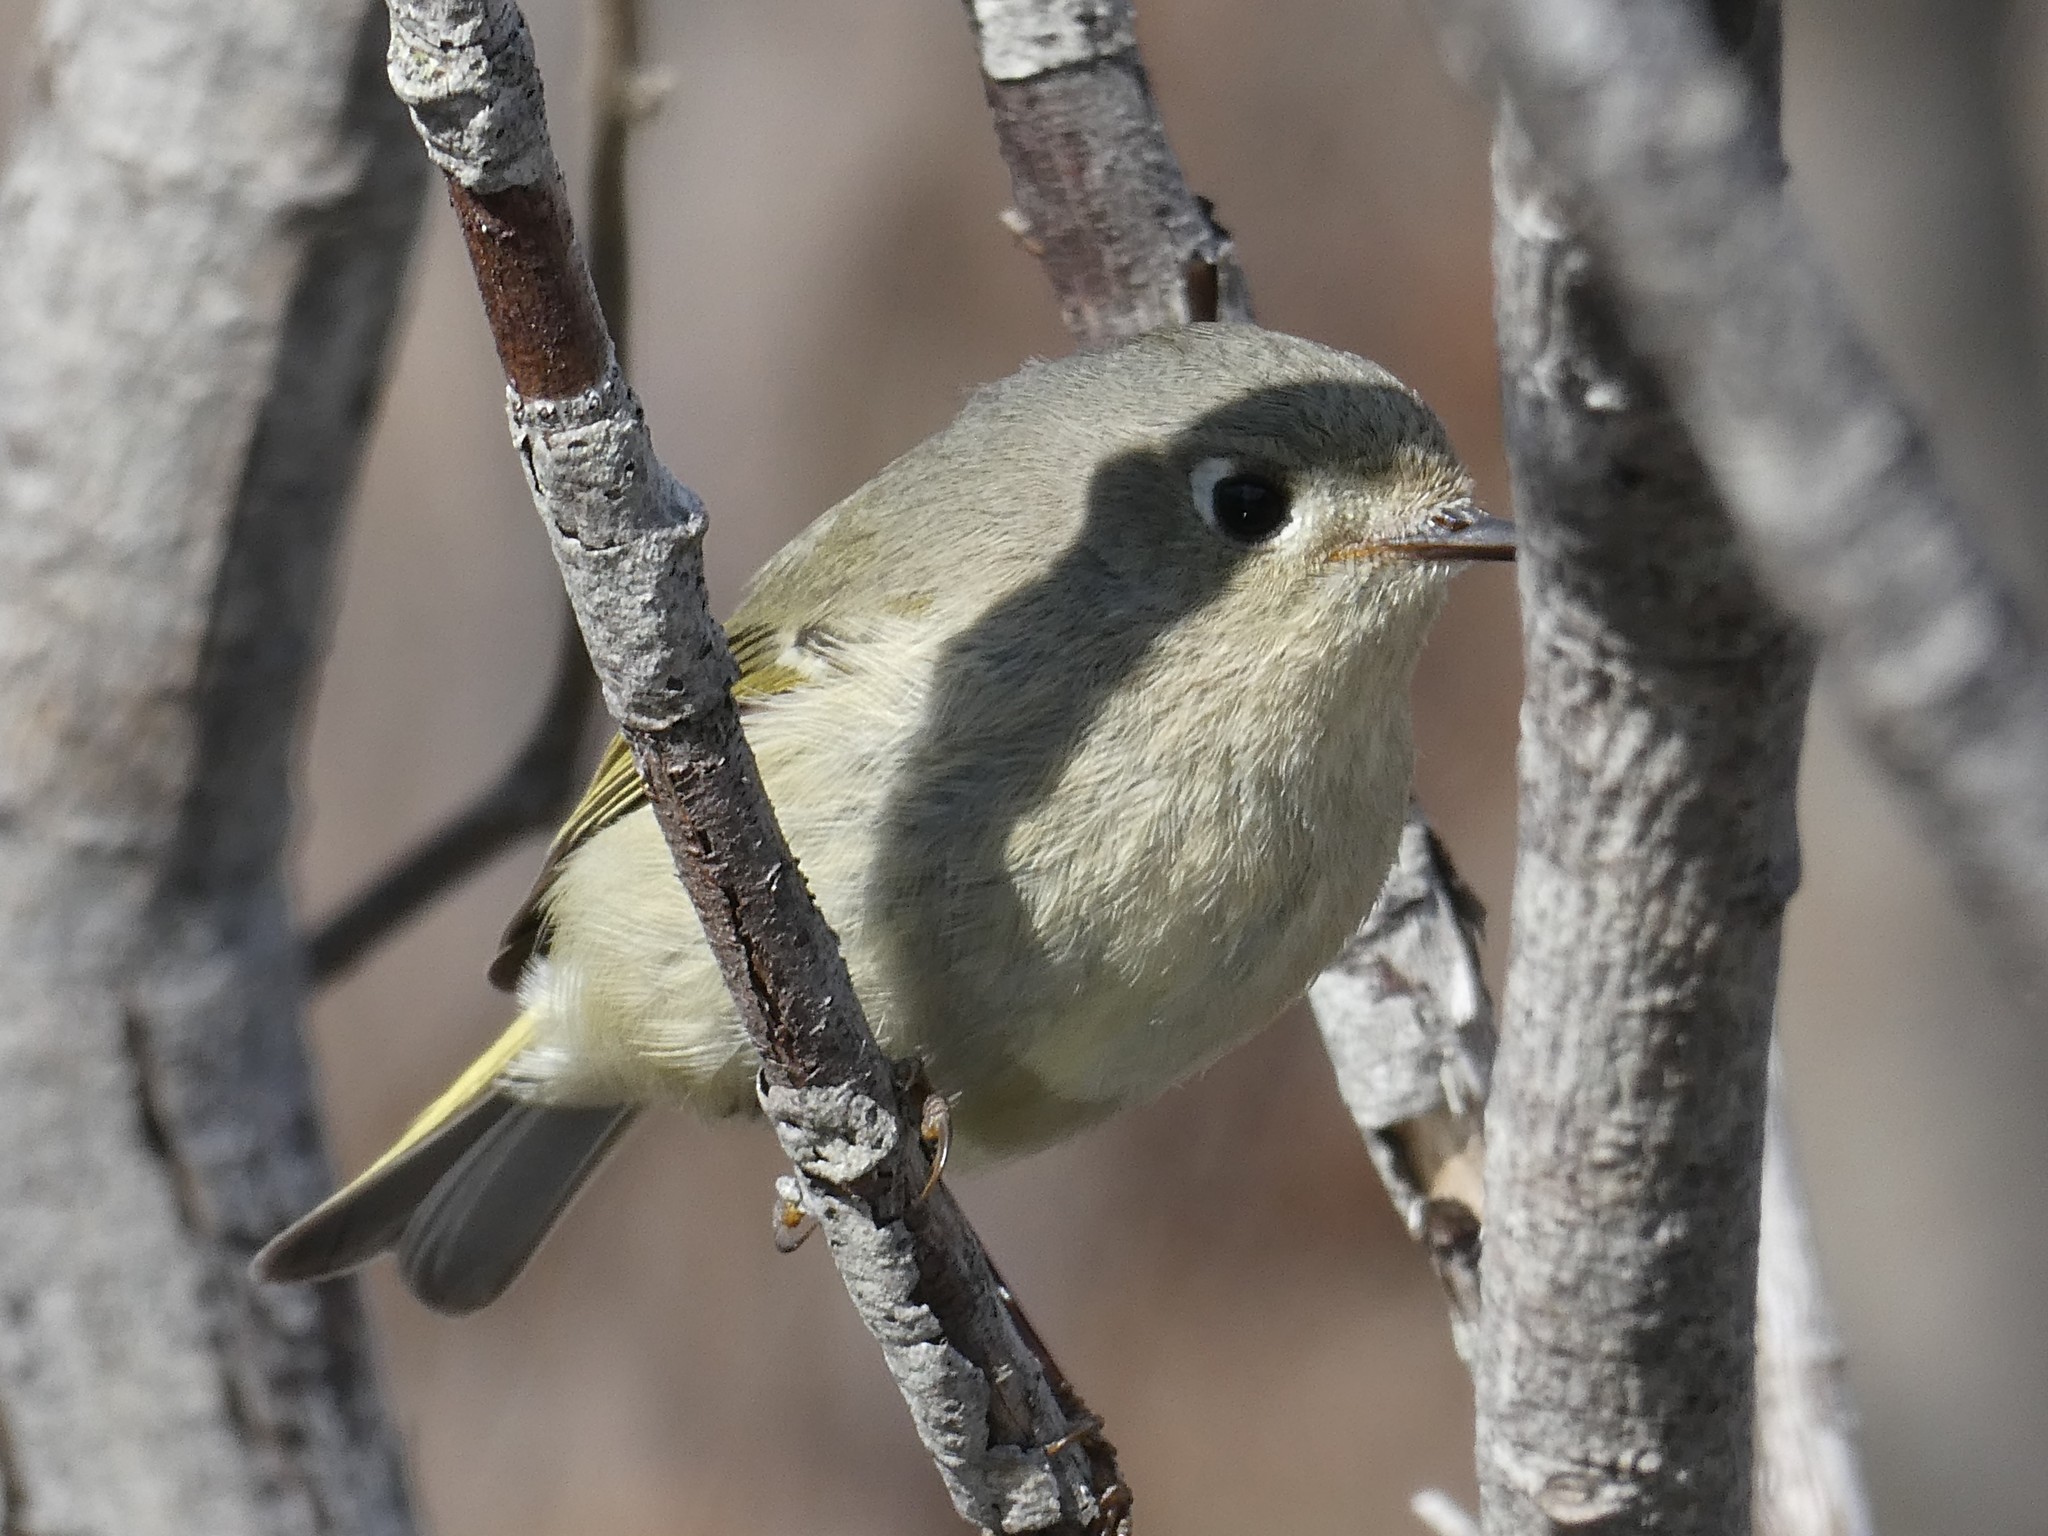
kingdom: Animalia
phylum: Chordata
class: Aves
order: Passeriformes
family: Regulidae
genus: Regulus
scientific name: Regulus calendula
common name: Ruby-crowned kinglet
